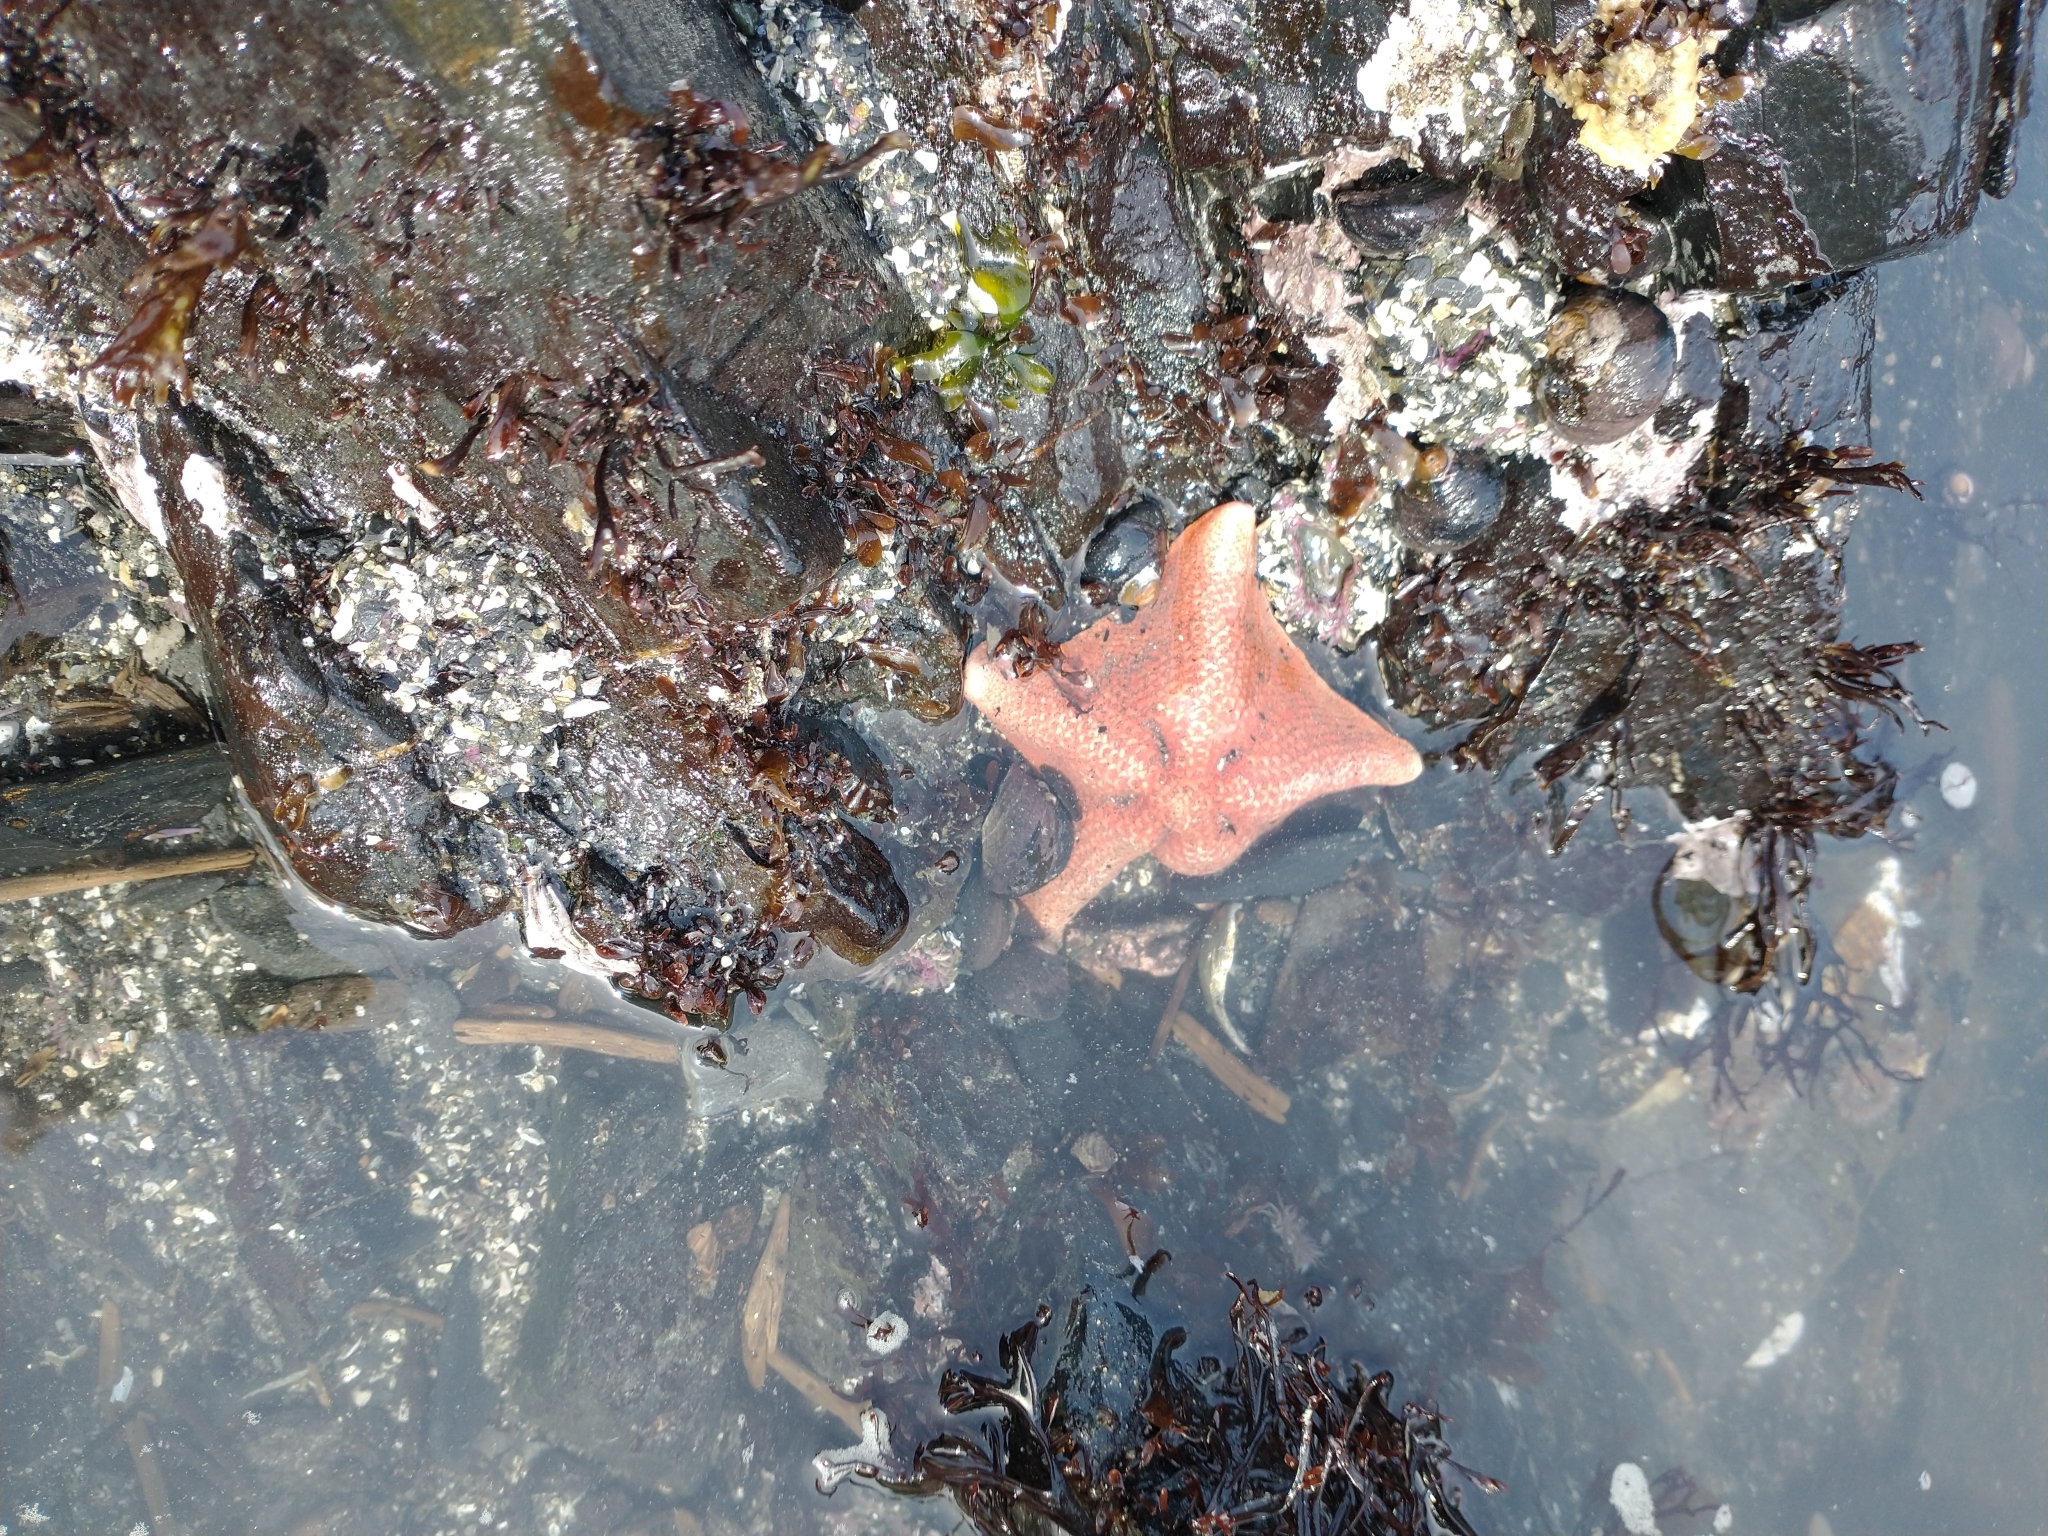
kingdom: Animalia
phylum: Echinodermata
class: Asteroidea
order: Valvatida
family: Asterinidae
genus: Patiria
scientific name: Patiria miniata
